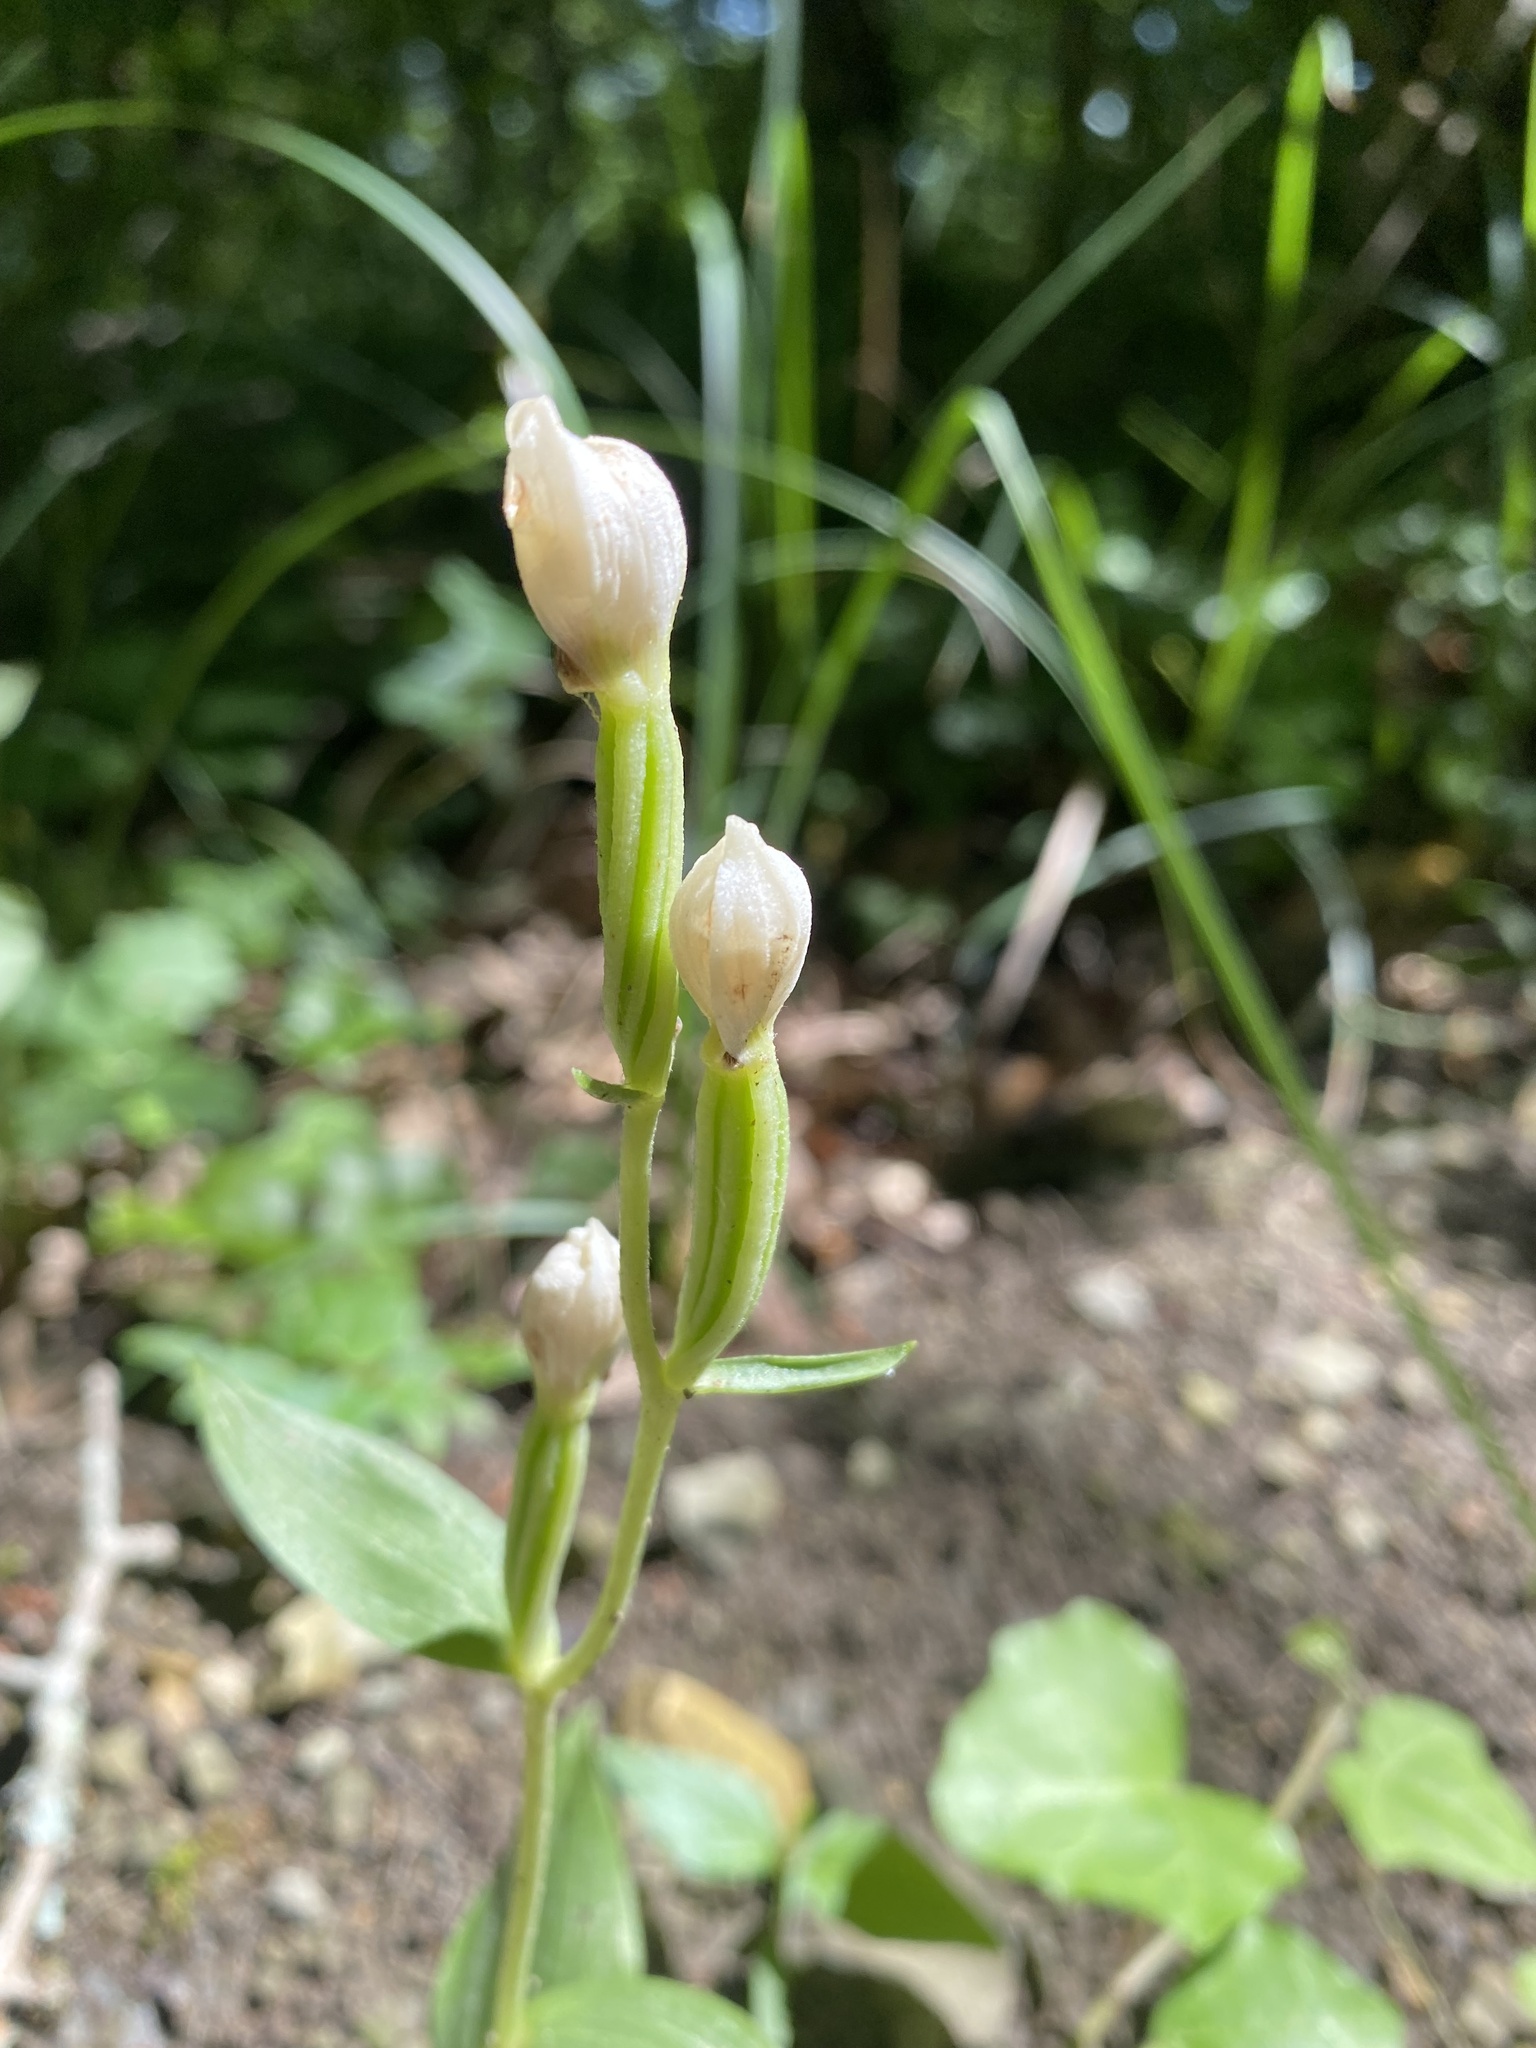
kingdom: Plantae
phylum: Tracheophyta
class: Liliopsida
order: Asparagales
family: Orchidaceae
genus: Cephalanthera
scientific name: Cephalanthera damasonium
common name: White helleborine
